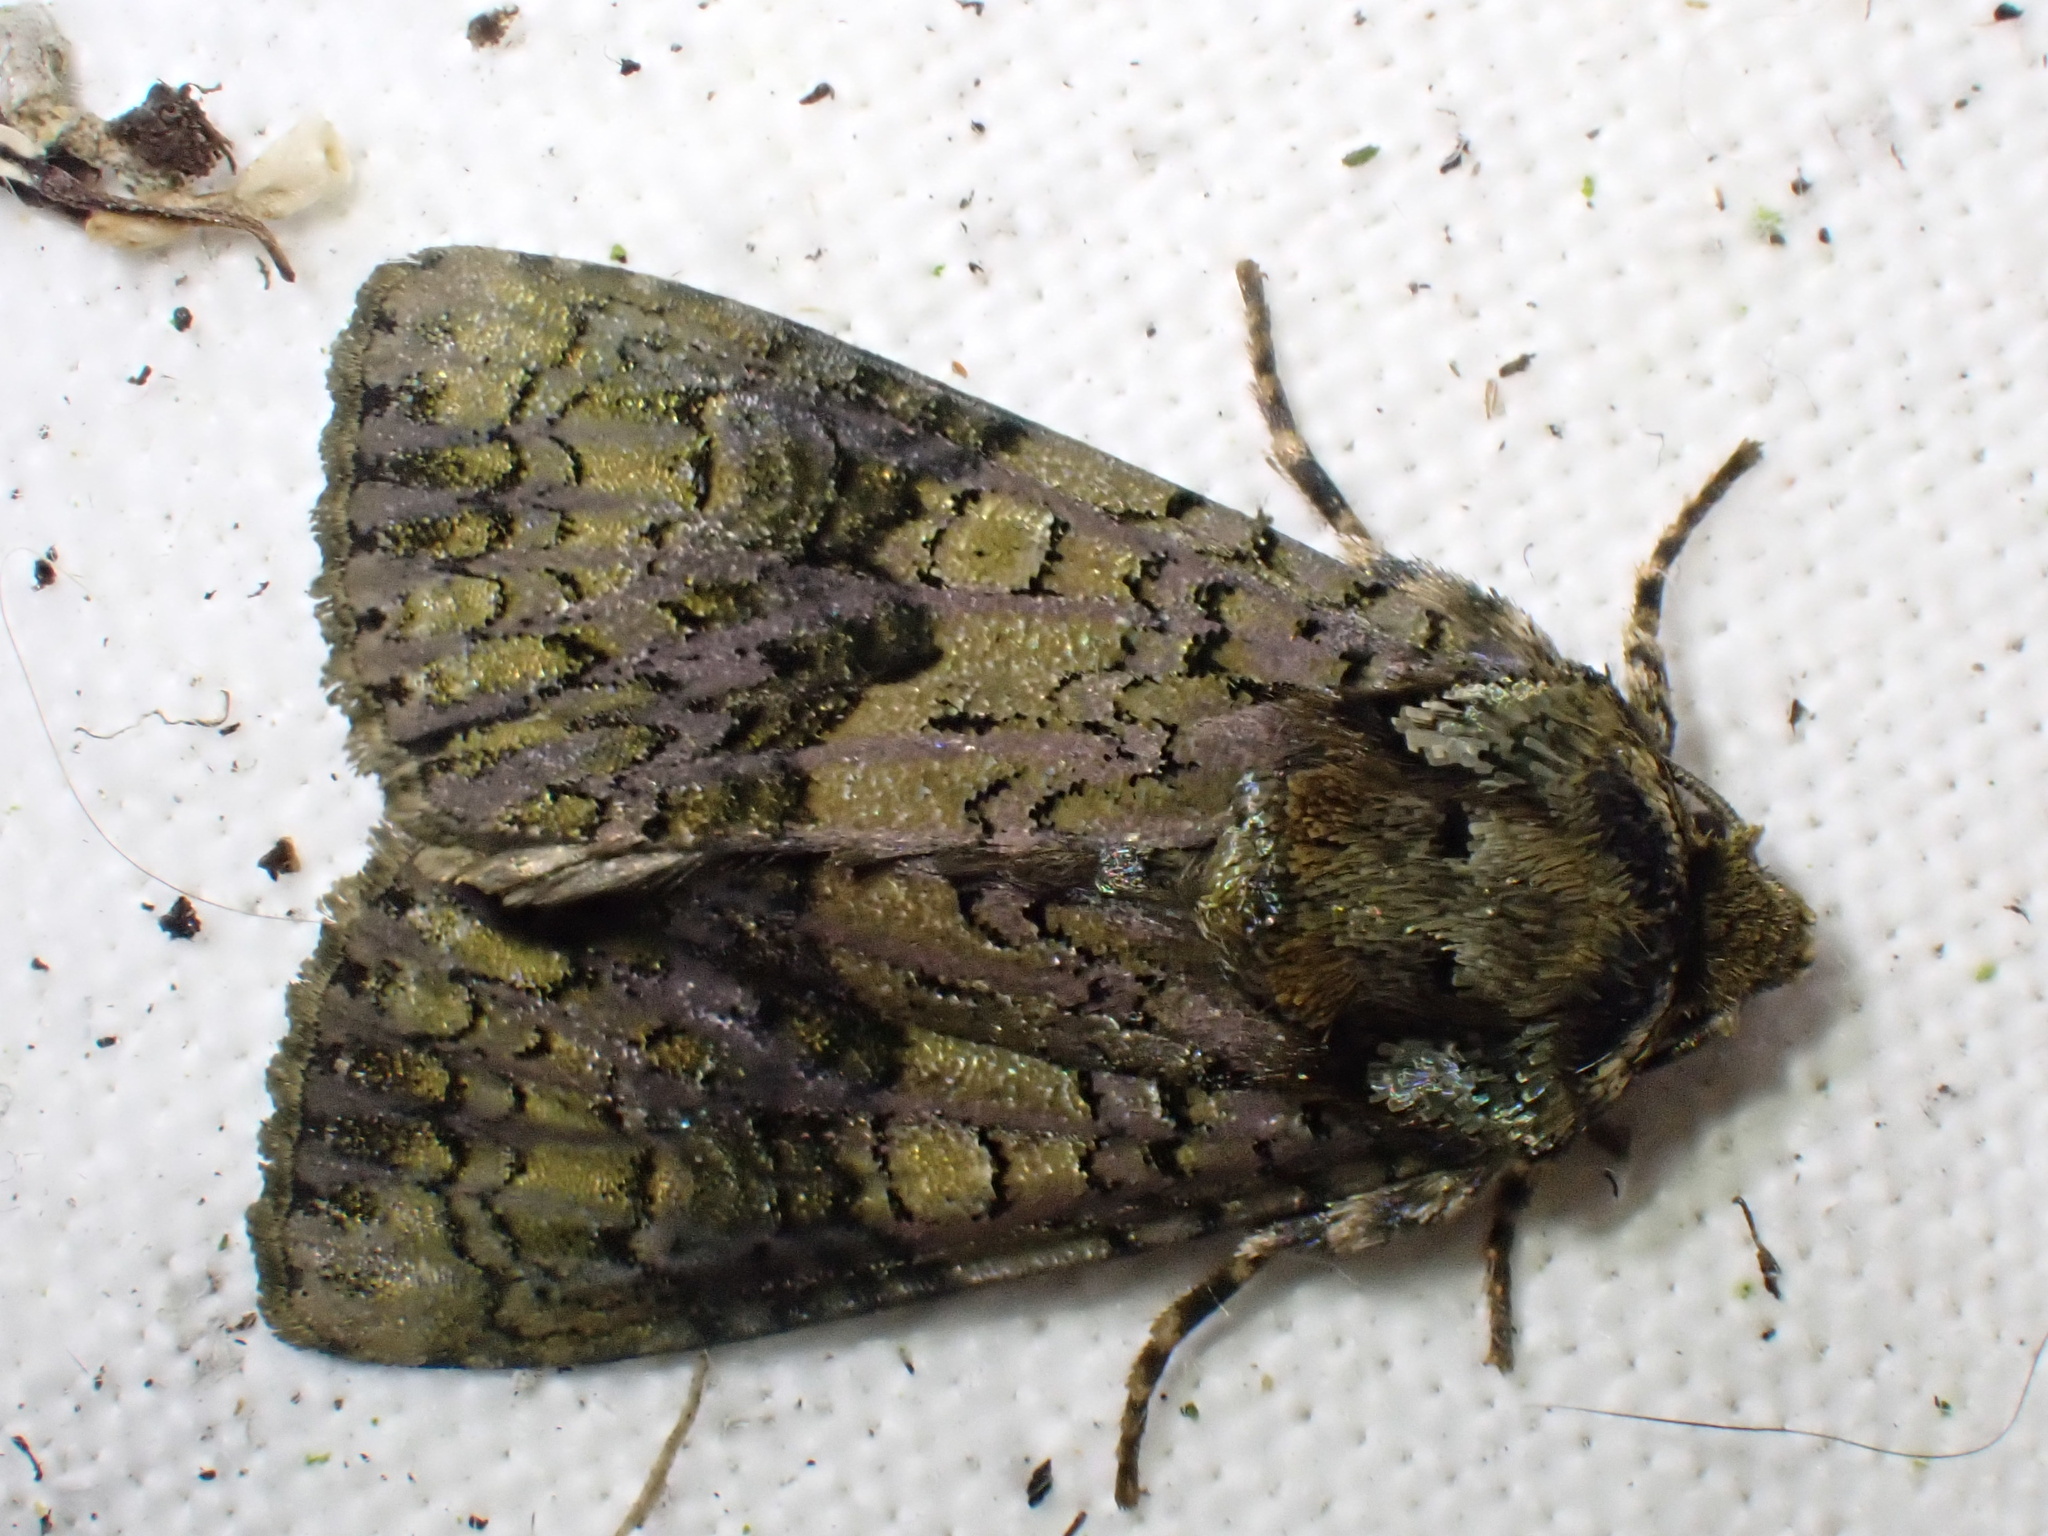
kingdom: Animalia
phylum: Arthropoda
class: Insecta
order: Lepidoptera
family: Noctuidae
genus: Craniophora
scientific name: Craniophora ligustri
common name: Coronet
